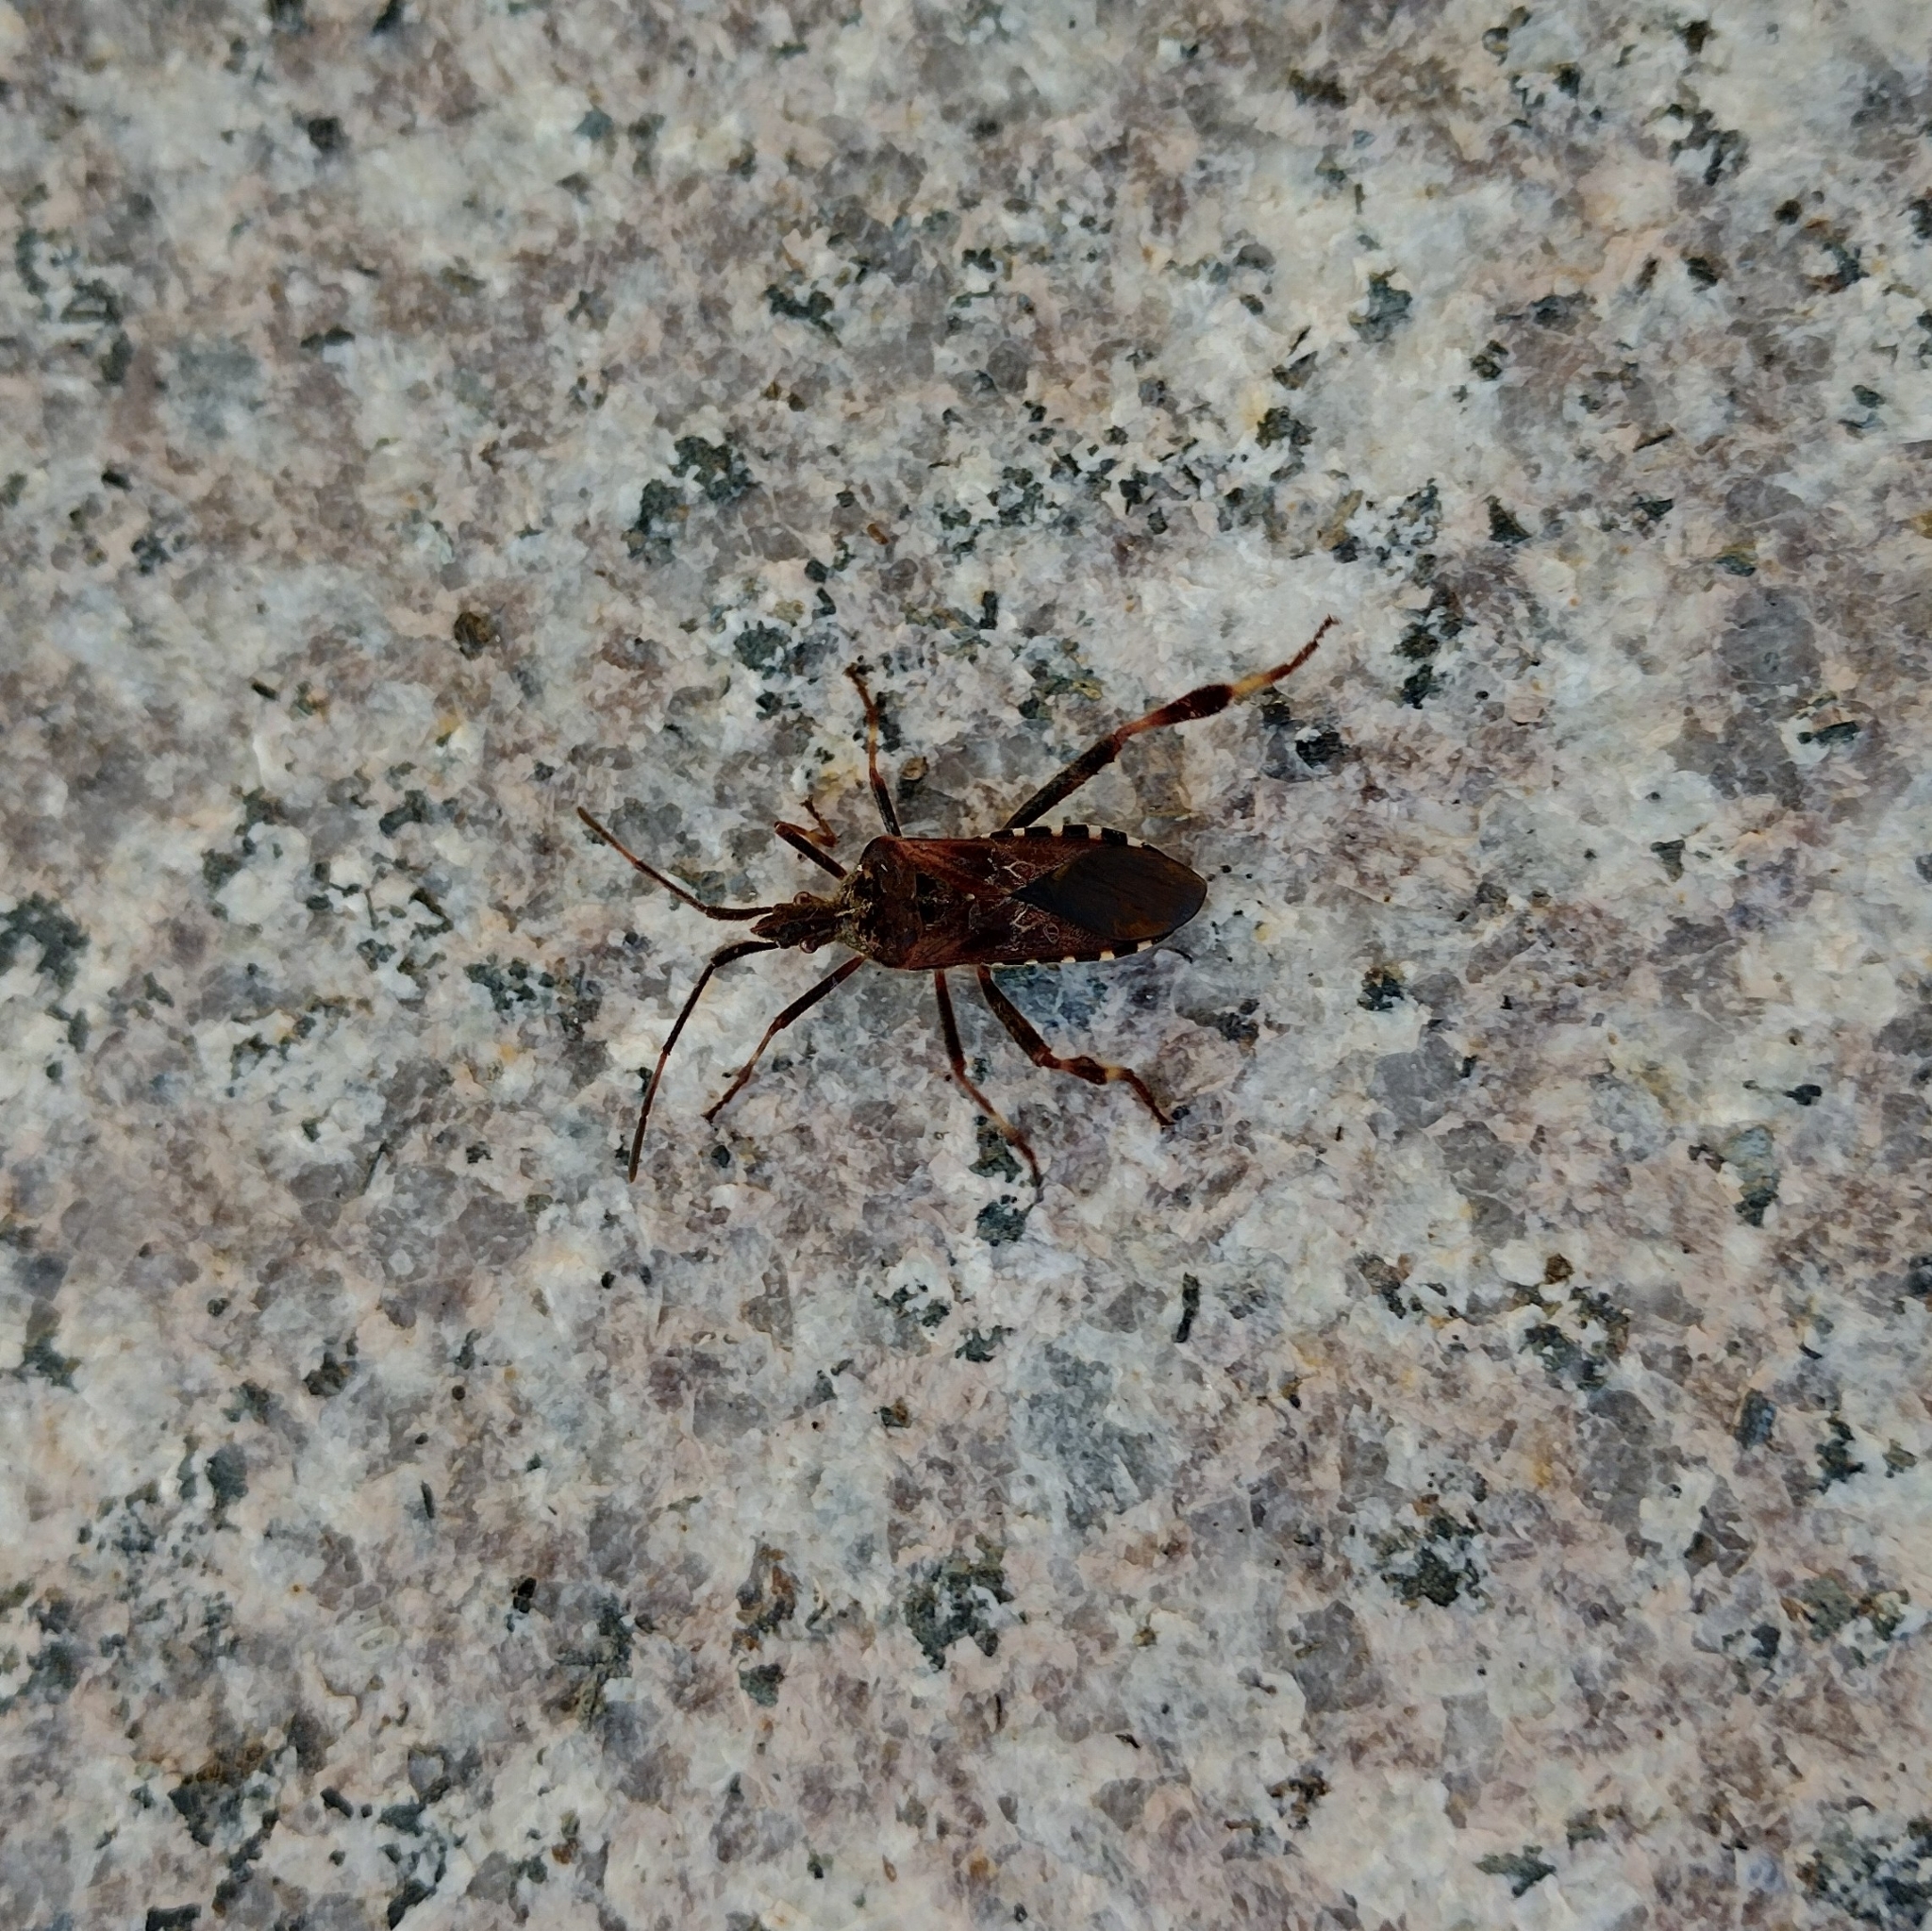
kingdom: Animalia
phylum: Arthropoda
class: Insecta
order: Hemiptera
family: Coreidae
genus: Leptoglossus
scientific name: Leptoglossus occidentalis
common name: Western conifer-seed bug
